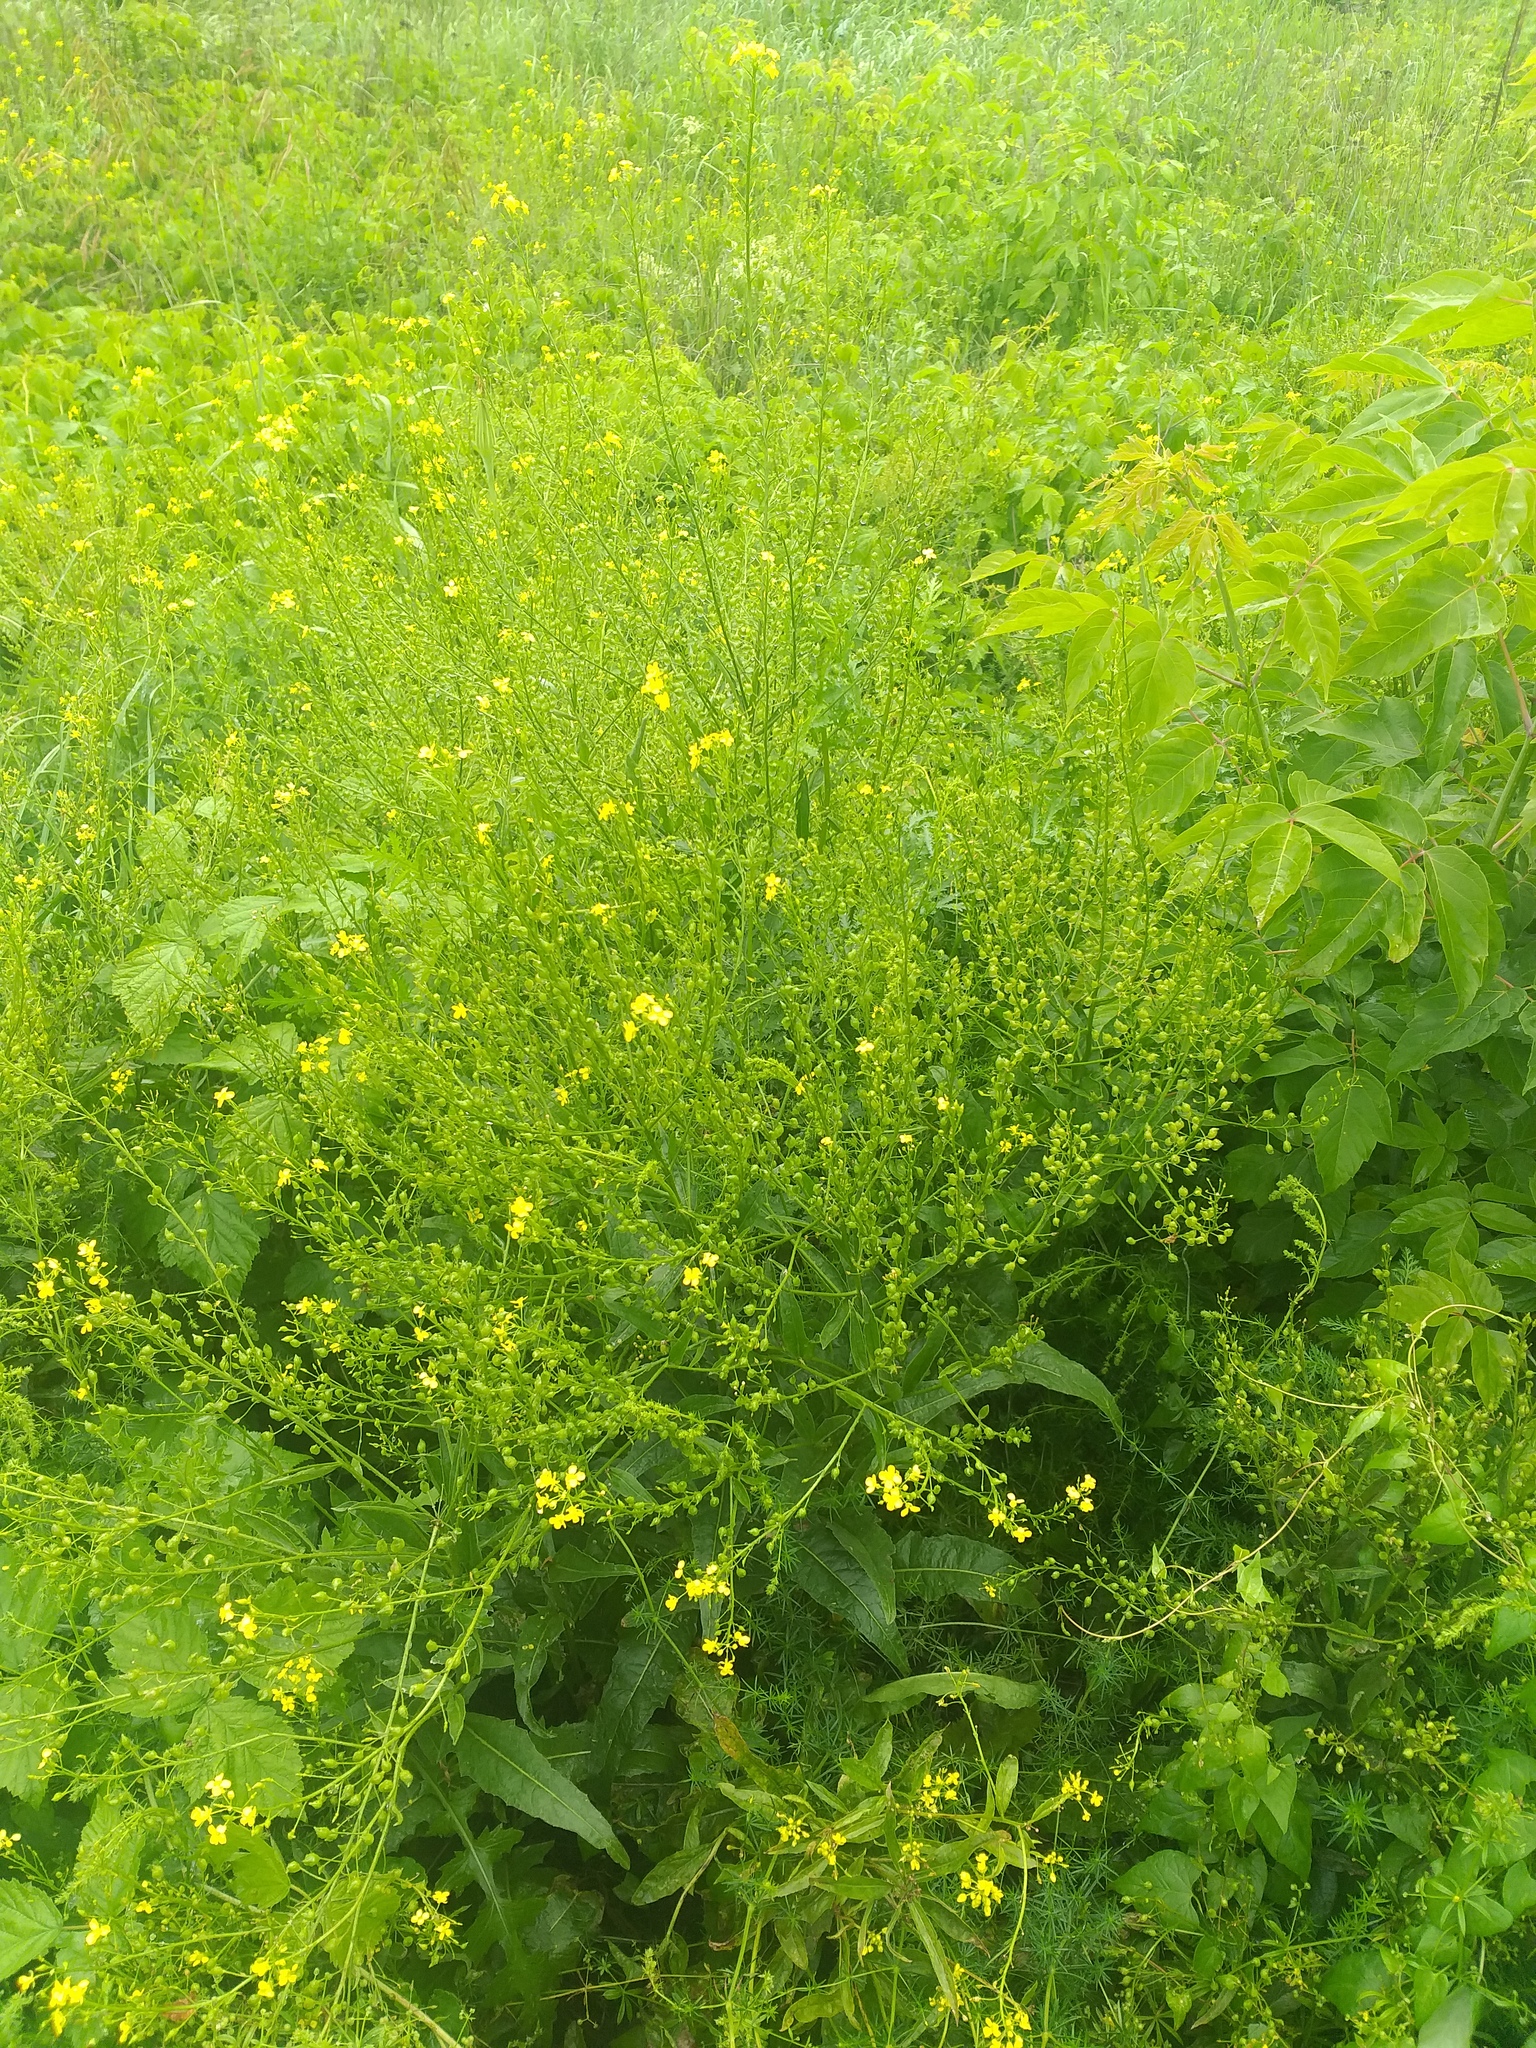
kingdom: Plantae
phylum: Tracheophyta
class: Magnoliopsida
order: Brassicales
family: Brassicaceae
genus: Bunias
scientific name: Bunias orientalis
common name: Warty-cabbage
